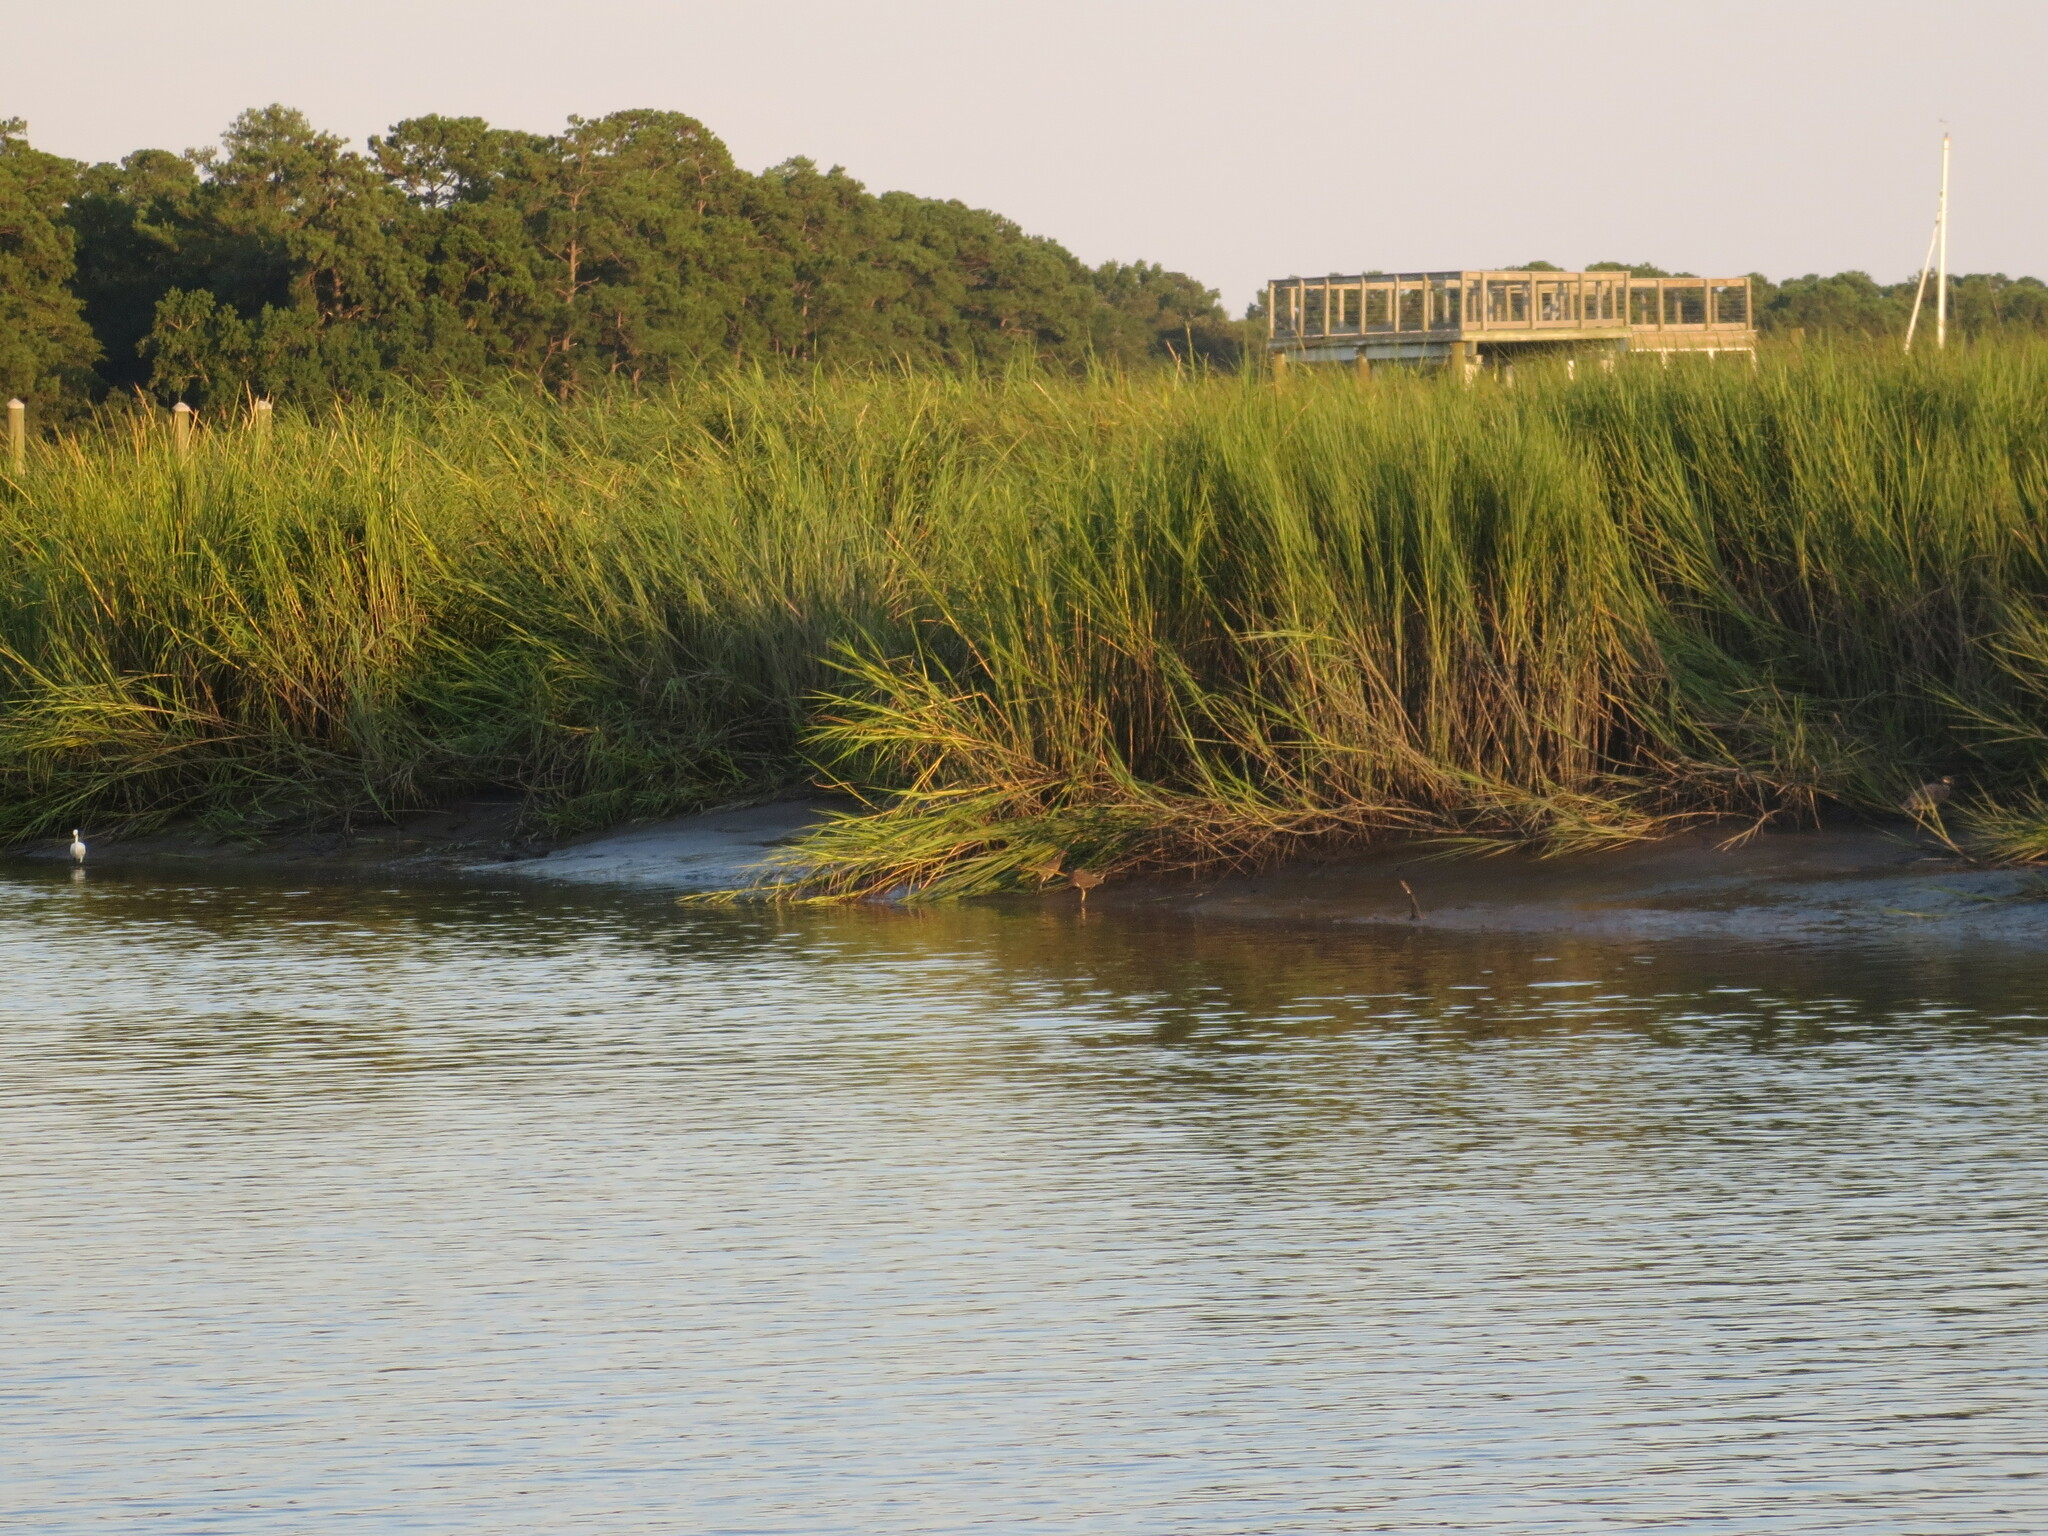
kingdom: Animalia
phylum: Chordata
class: Aves
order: Pelecaniformes
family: Ardeidae
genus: Butorides
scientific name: Butorides virescens
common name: Green heron
